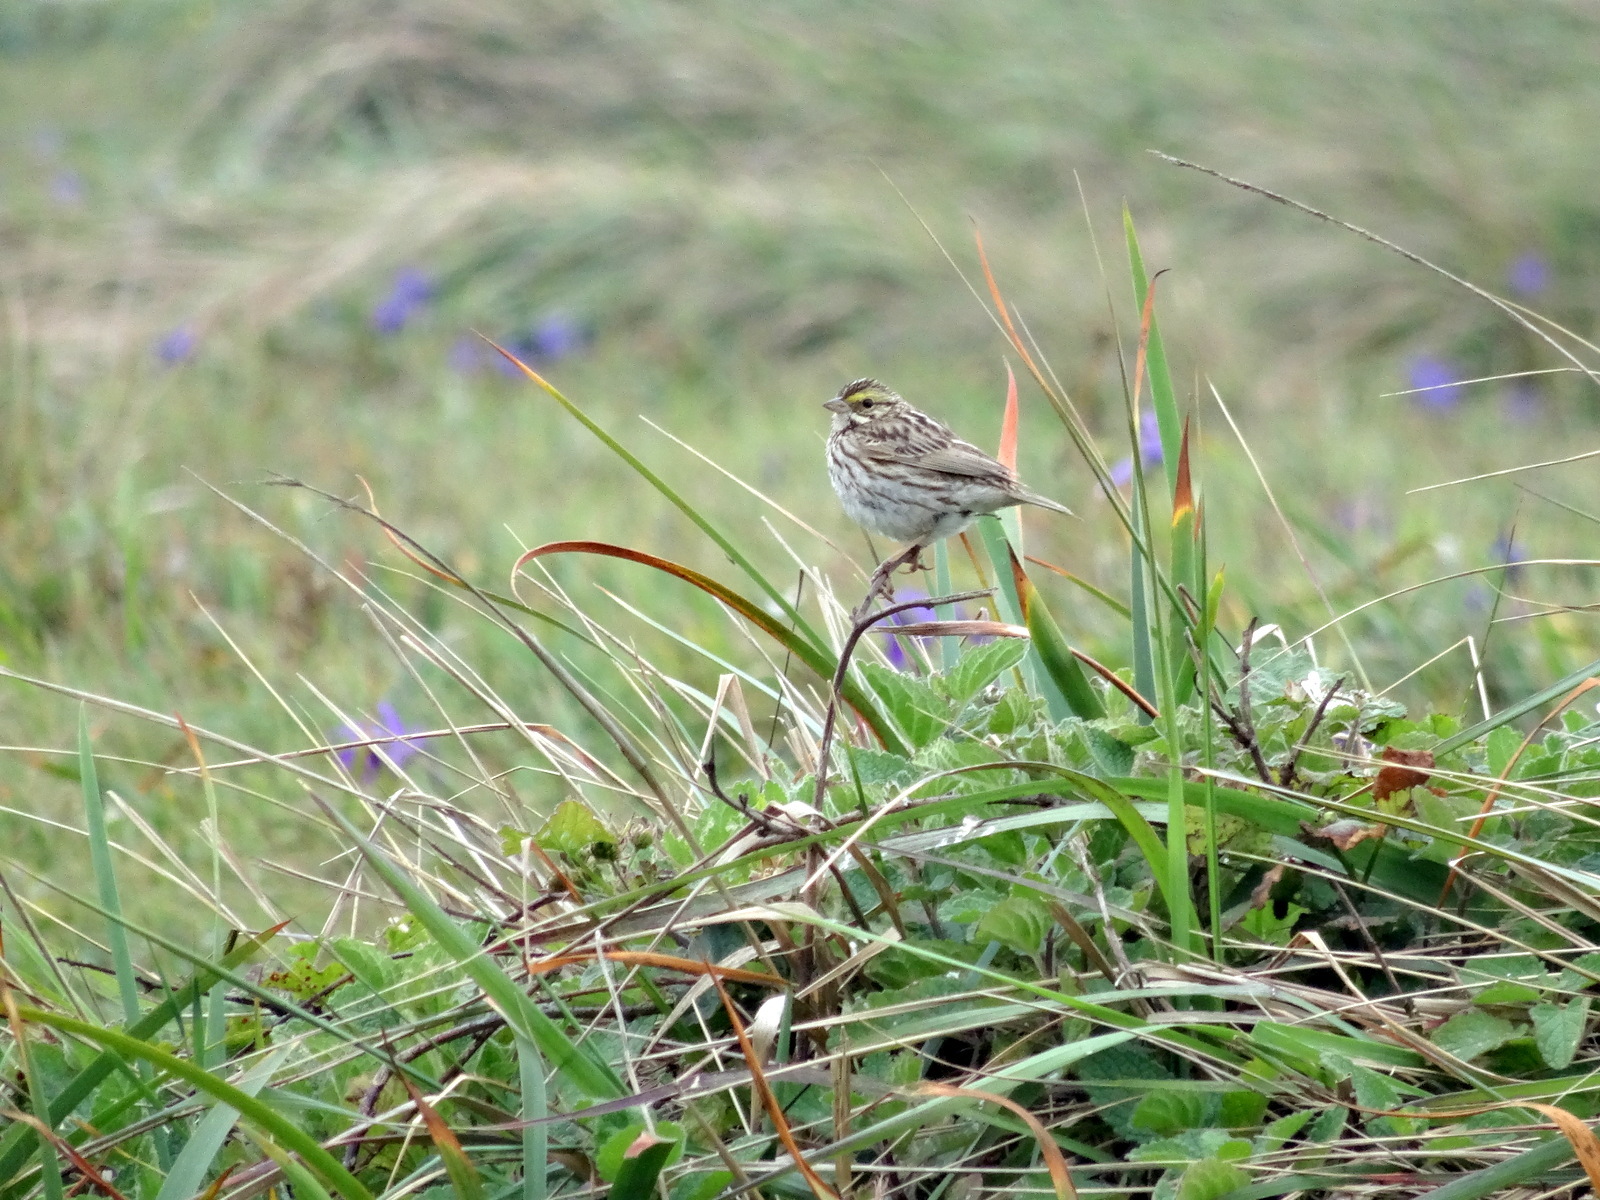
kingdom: Animalia
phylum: Chordata
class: Aves
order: Passeriformes
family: Passerellidae
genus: Passerculus
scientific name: Passerculus sandwichensis
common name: Savannah sparrow
